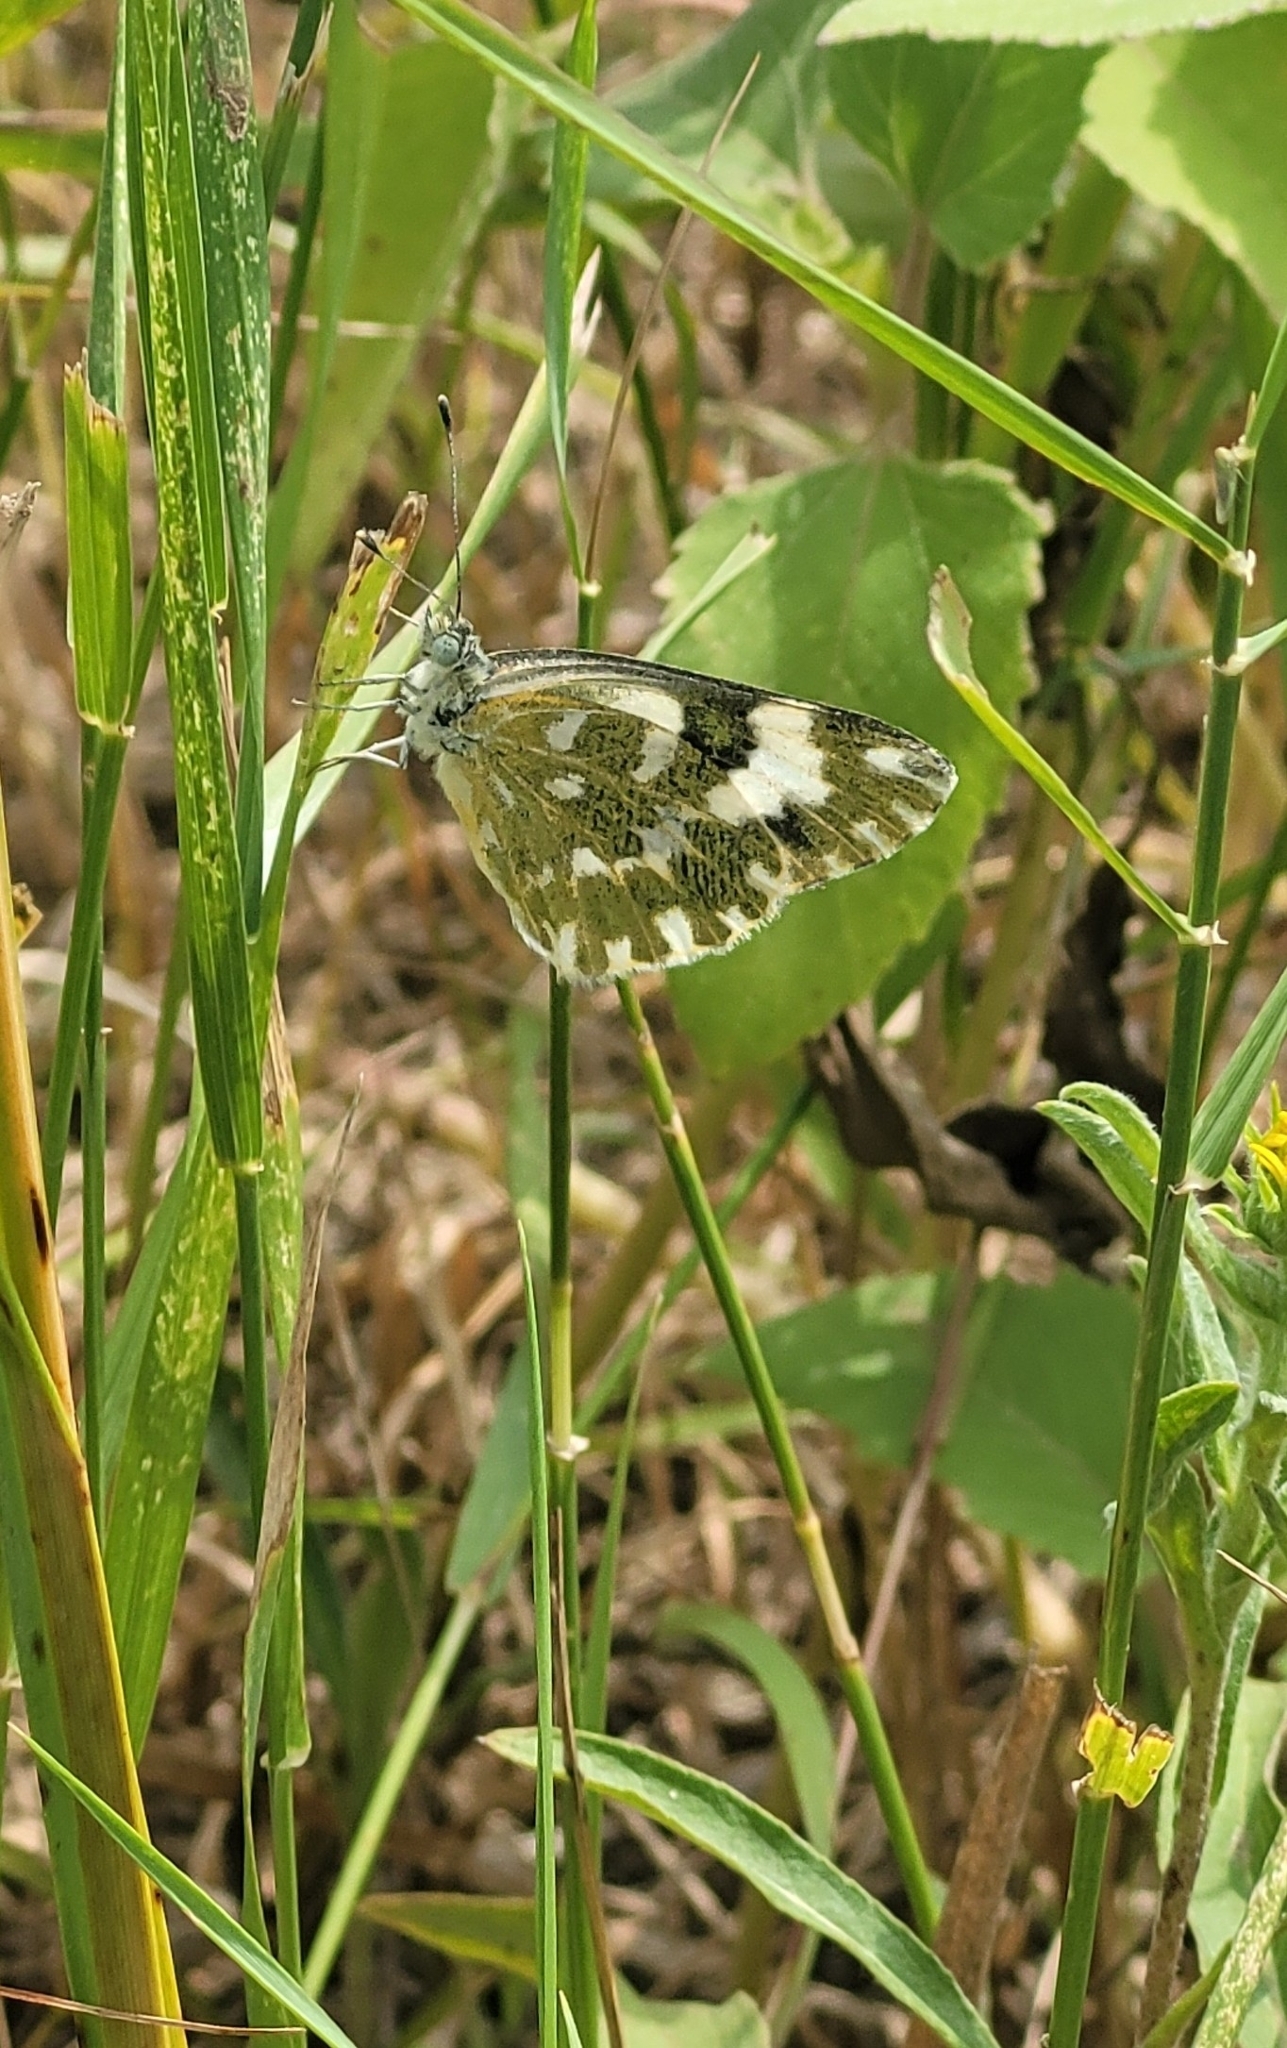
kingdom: Animalia
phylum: Arthropoda
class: Insecta
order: Lepidoptera
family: Pieridae
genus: Pontia
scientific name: Pontia edusa
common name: Eastern bath white
